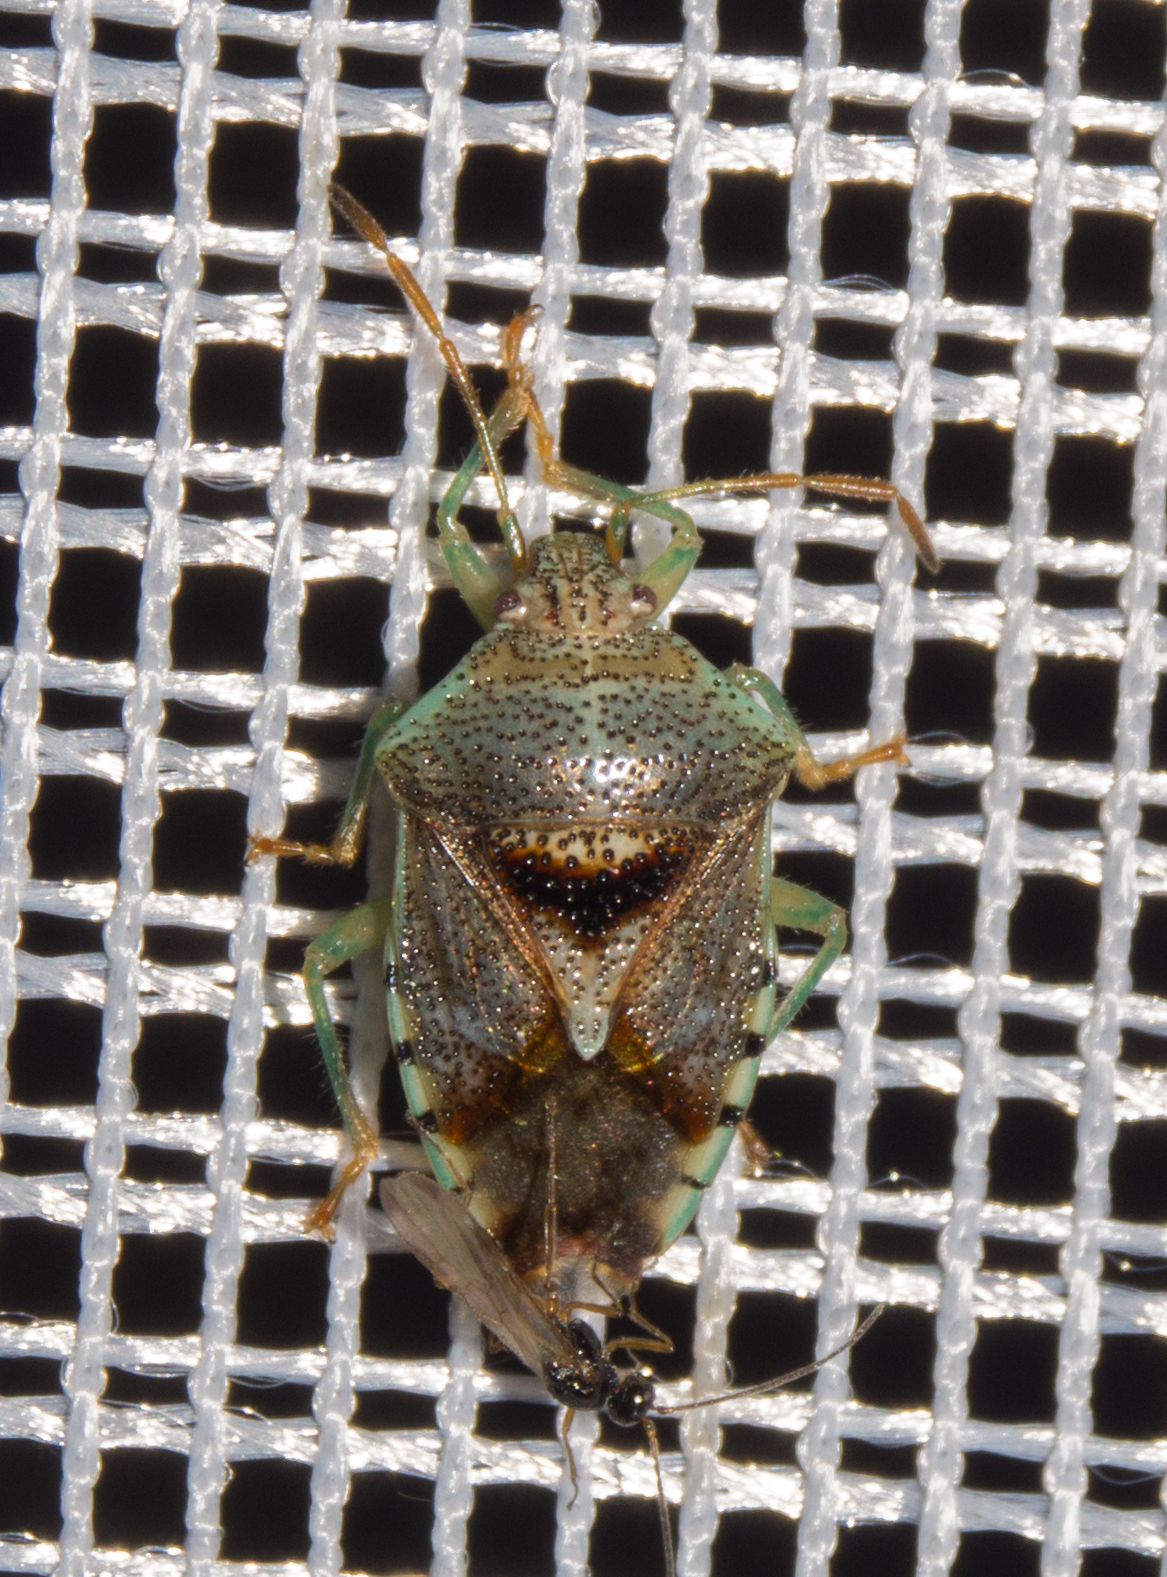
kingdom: Animalia
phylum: Arthropoda
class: Insecta
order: Hemiptera
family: Acanthosomatidae
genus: Elasmucha
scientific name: Elasmucha grisea
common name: Parent bug
